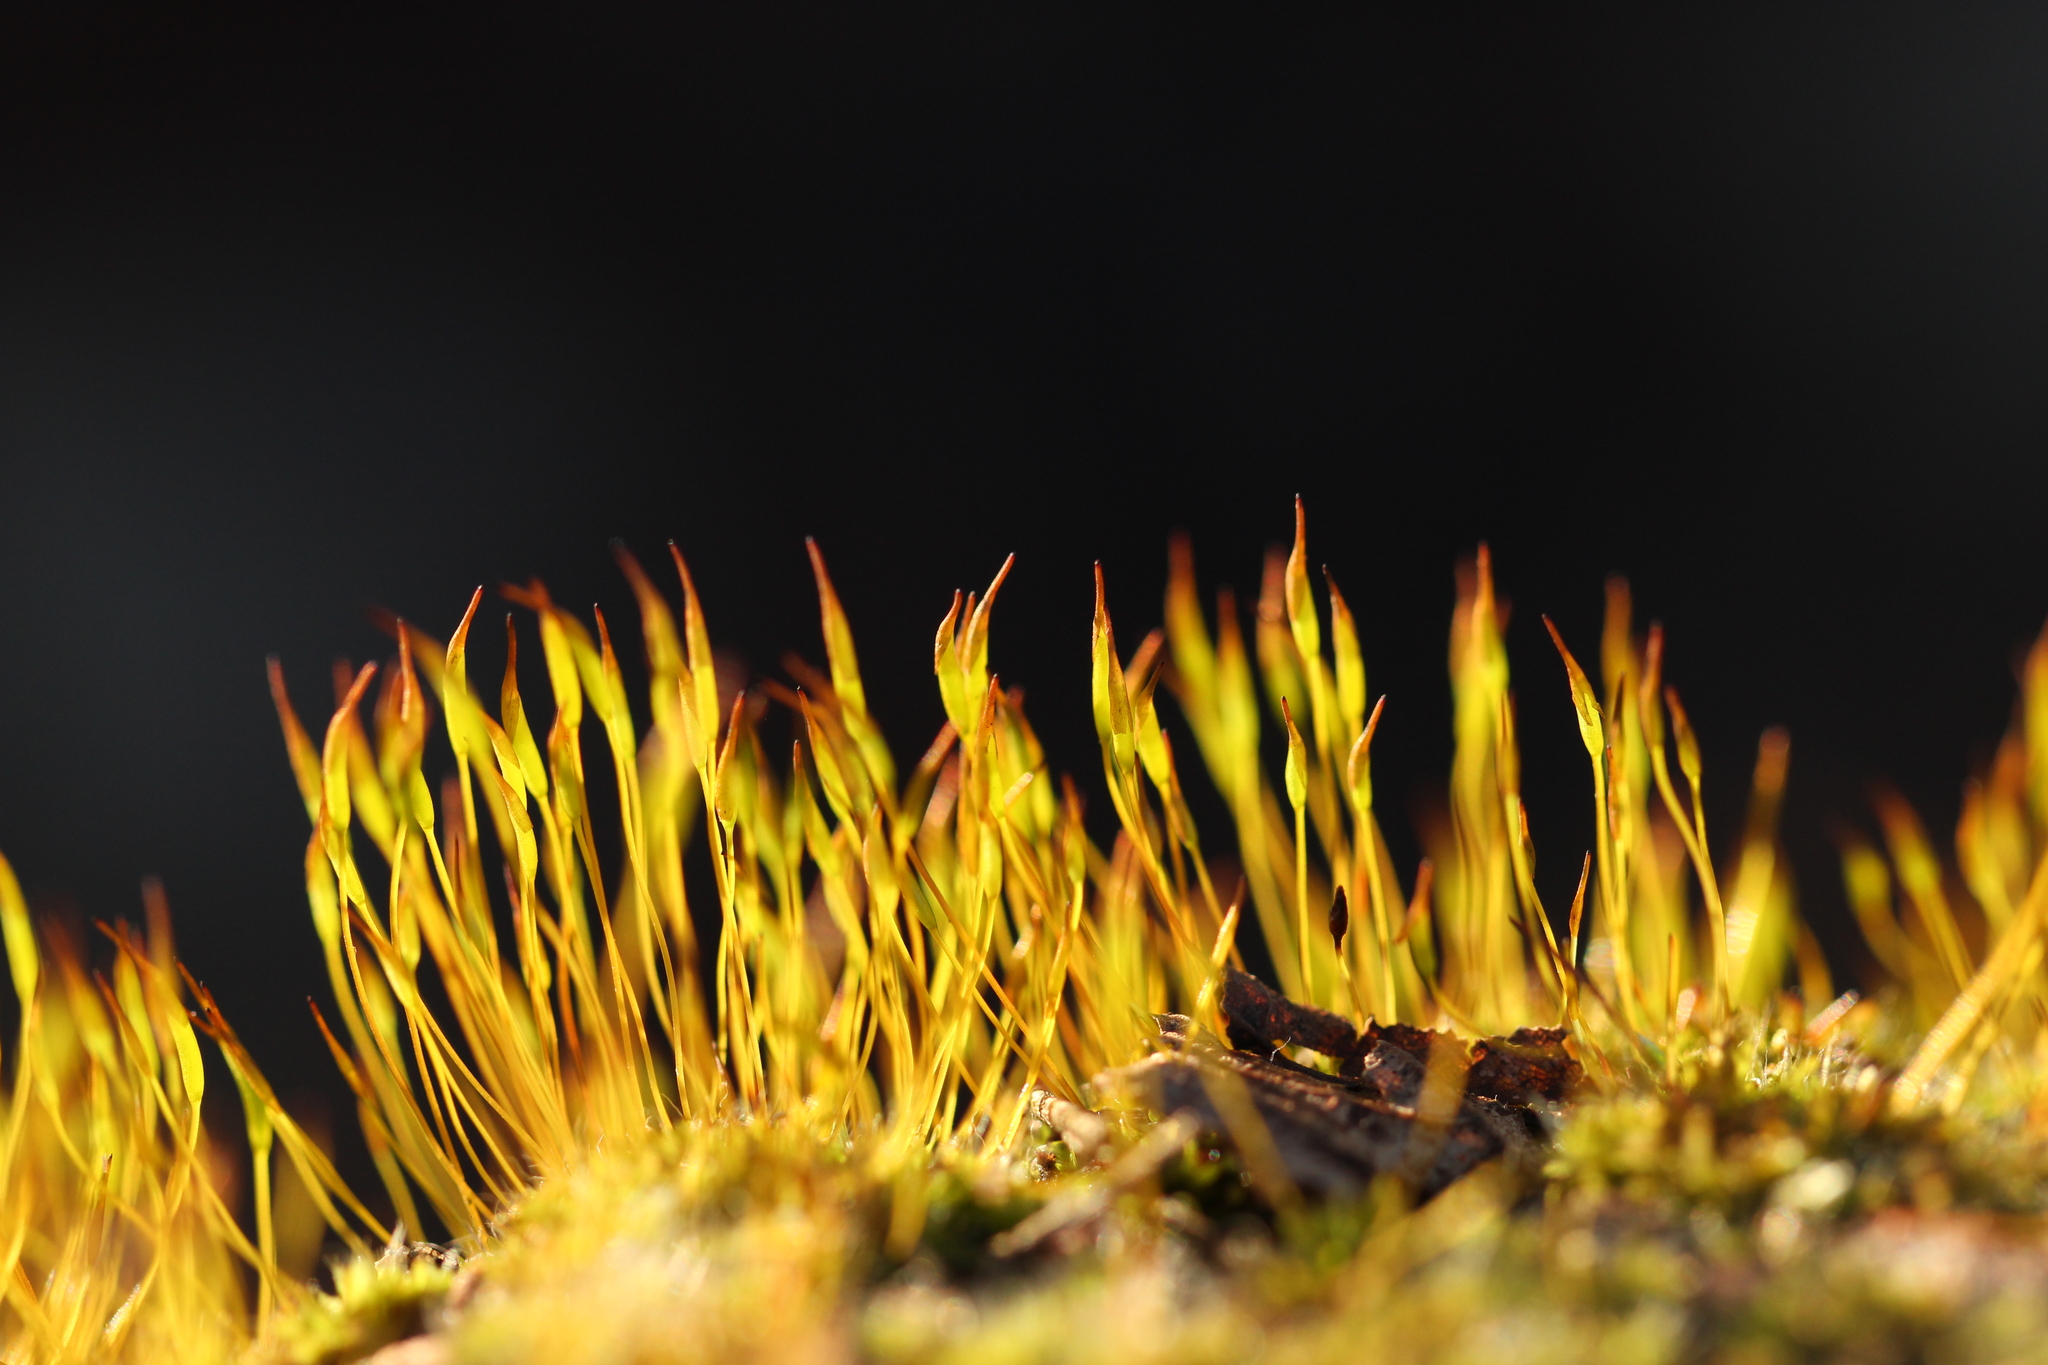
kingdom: Plantae
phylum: Bryophyta
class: Bryopsida
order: Pottiales
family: Pottiaceae
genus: Tortula
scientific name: Tortula muralis
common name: Wall screw-moss
